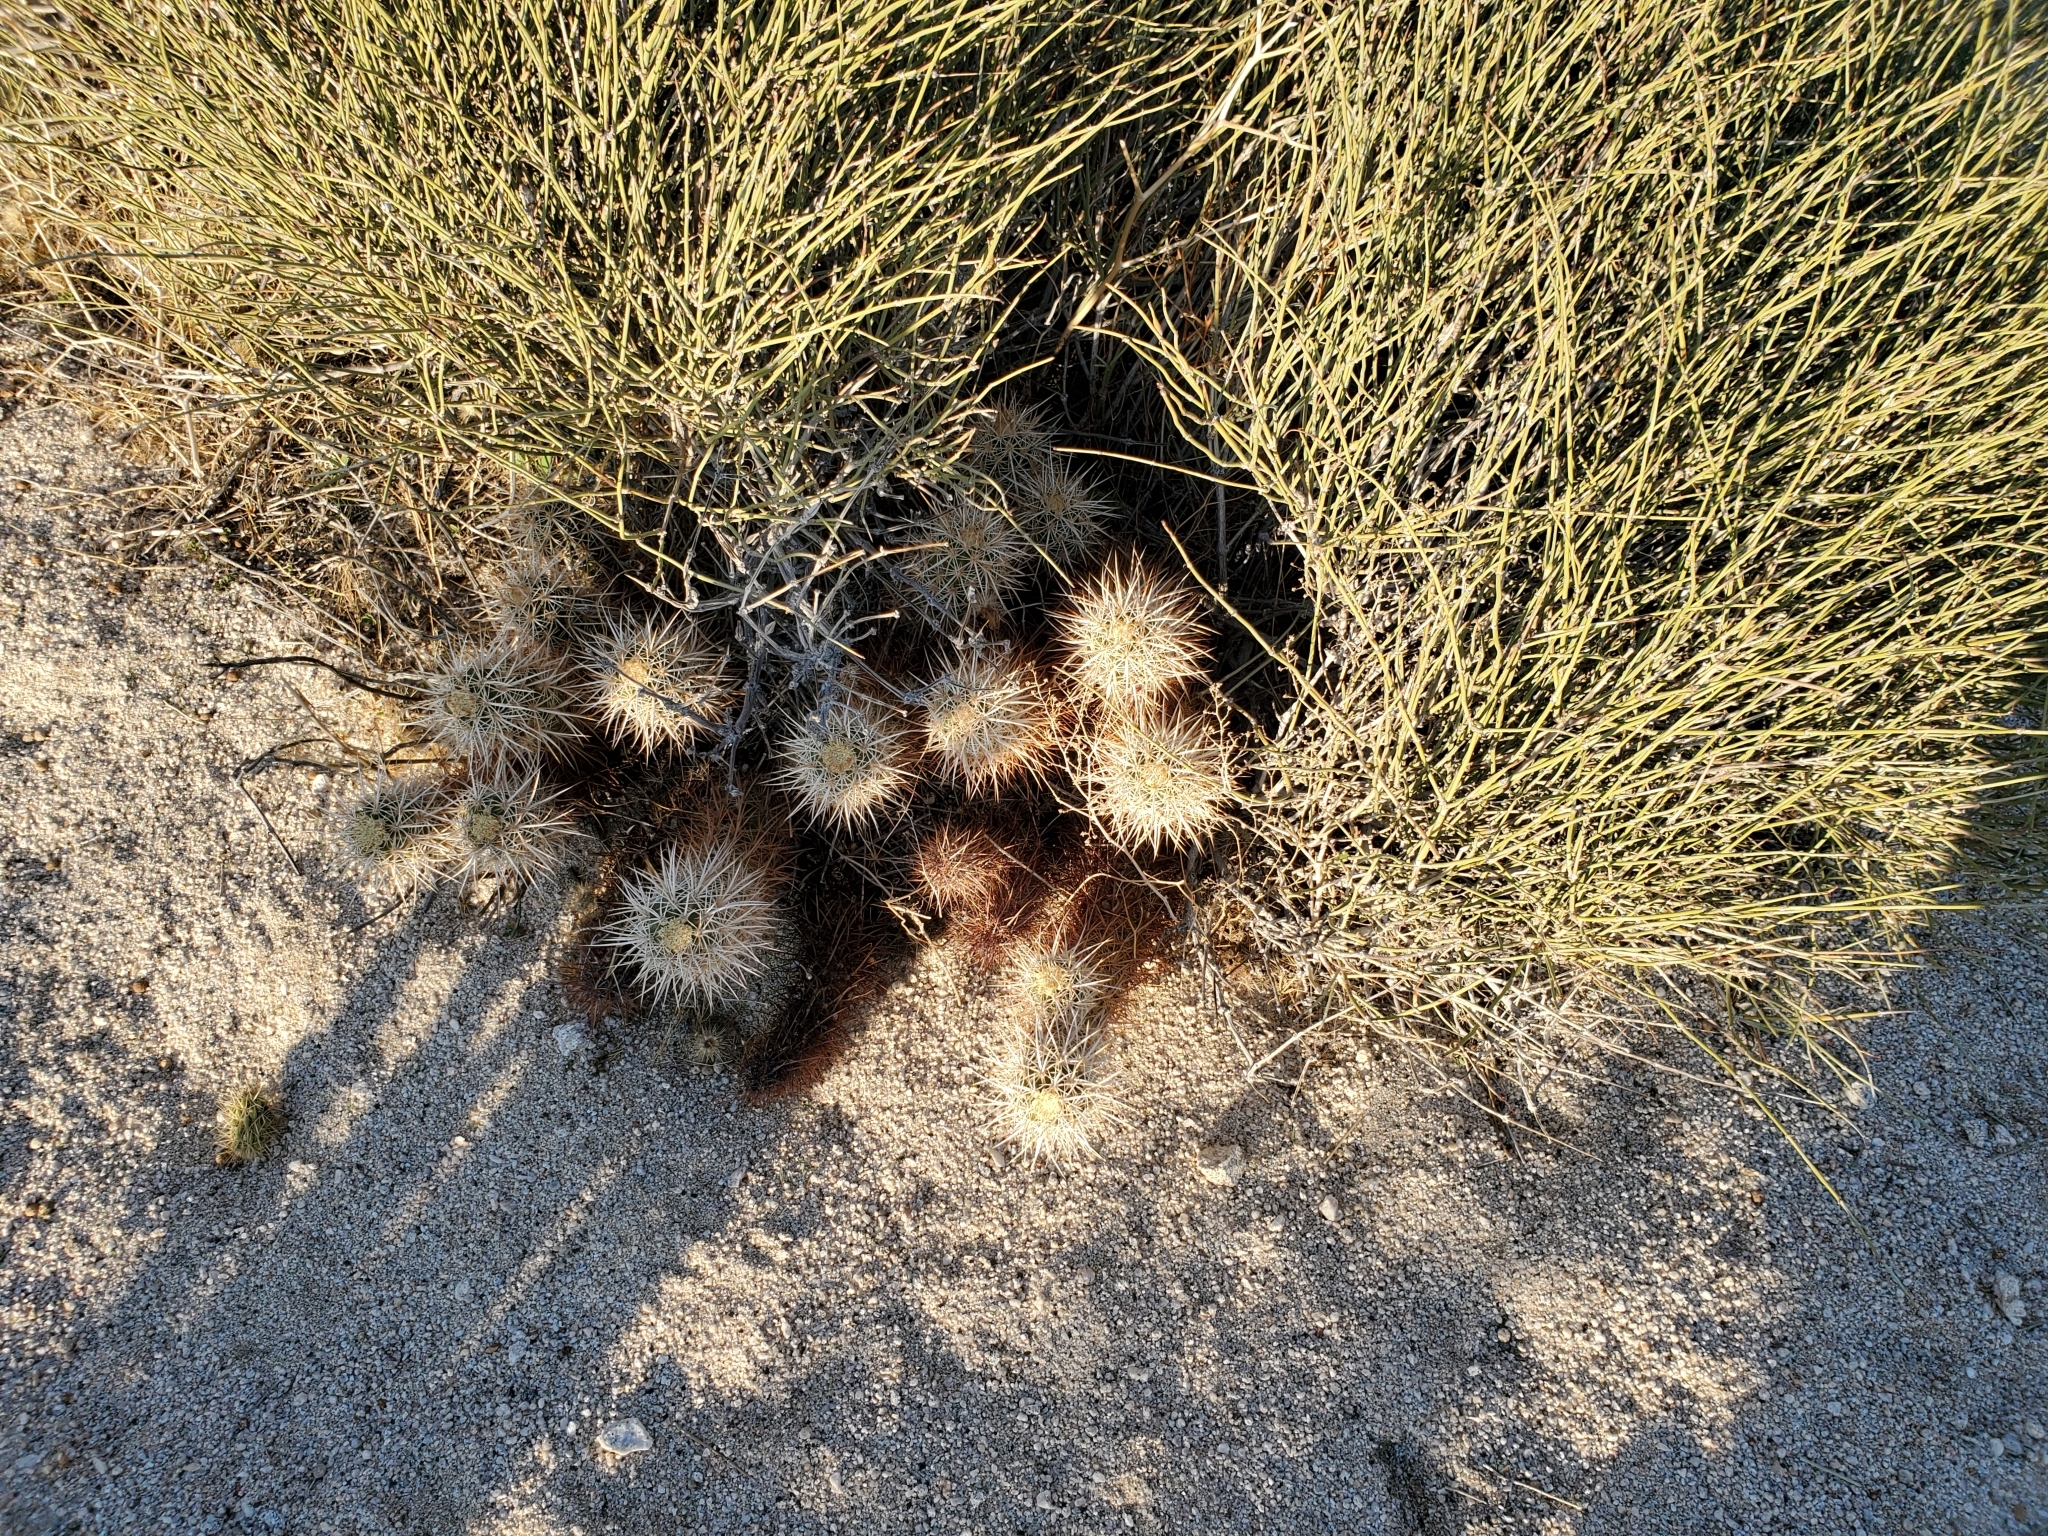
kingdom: Plantae
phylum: Tracheophyta
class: Magnoliopsida
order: Caryophyllales
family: Cactaceae
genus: Echinocereus
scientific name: Echinocereus engelmannii
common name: Engelmann's hedgehog cactus
